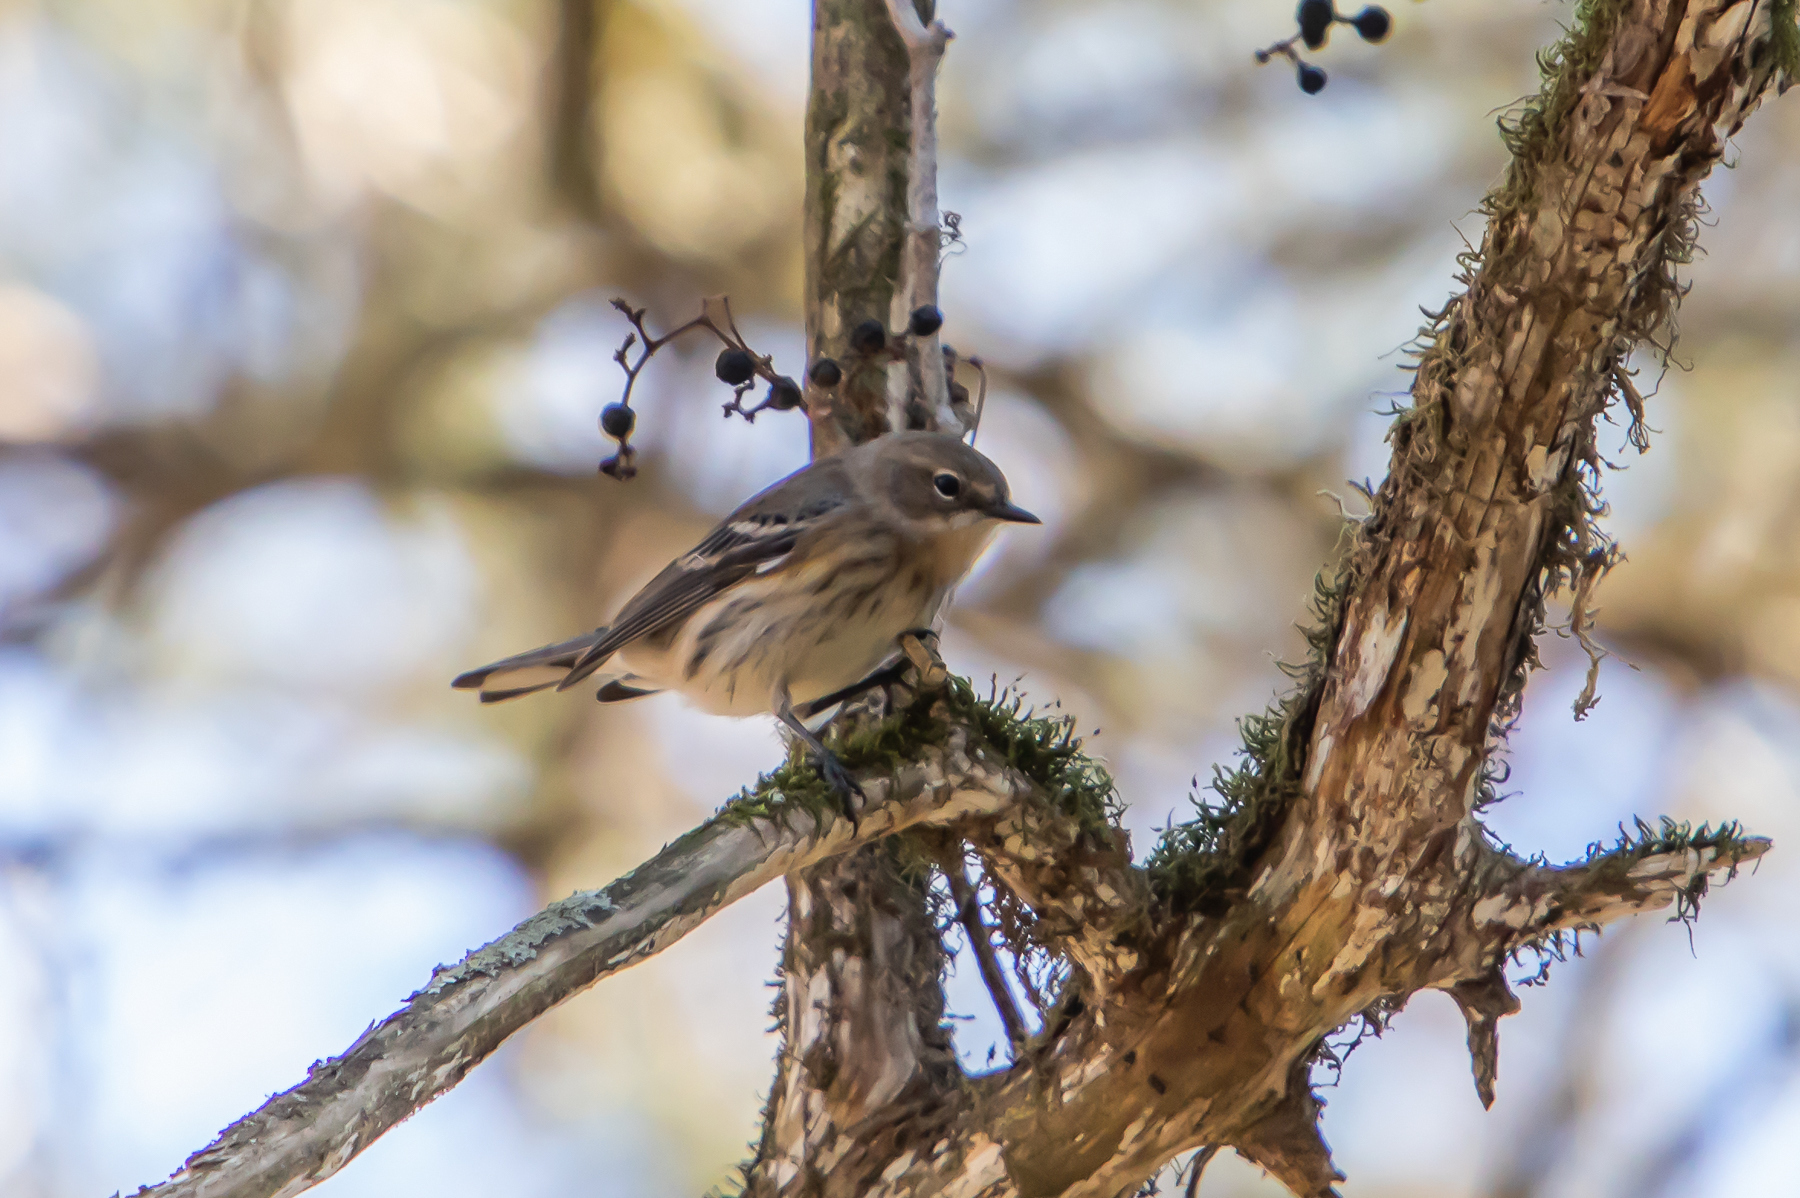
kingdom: Animalia
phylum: Chordata
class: Aves
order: Passeriformes
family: Parulidae
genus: Setophaga
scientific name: Setophaga coronata
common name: Myrtle warbler
